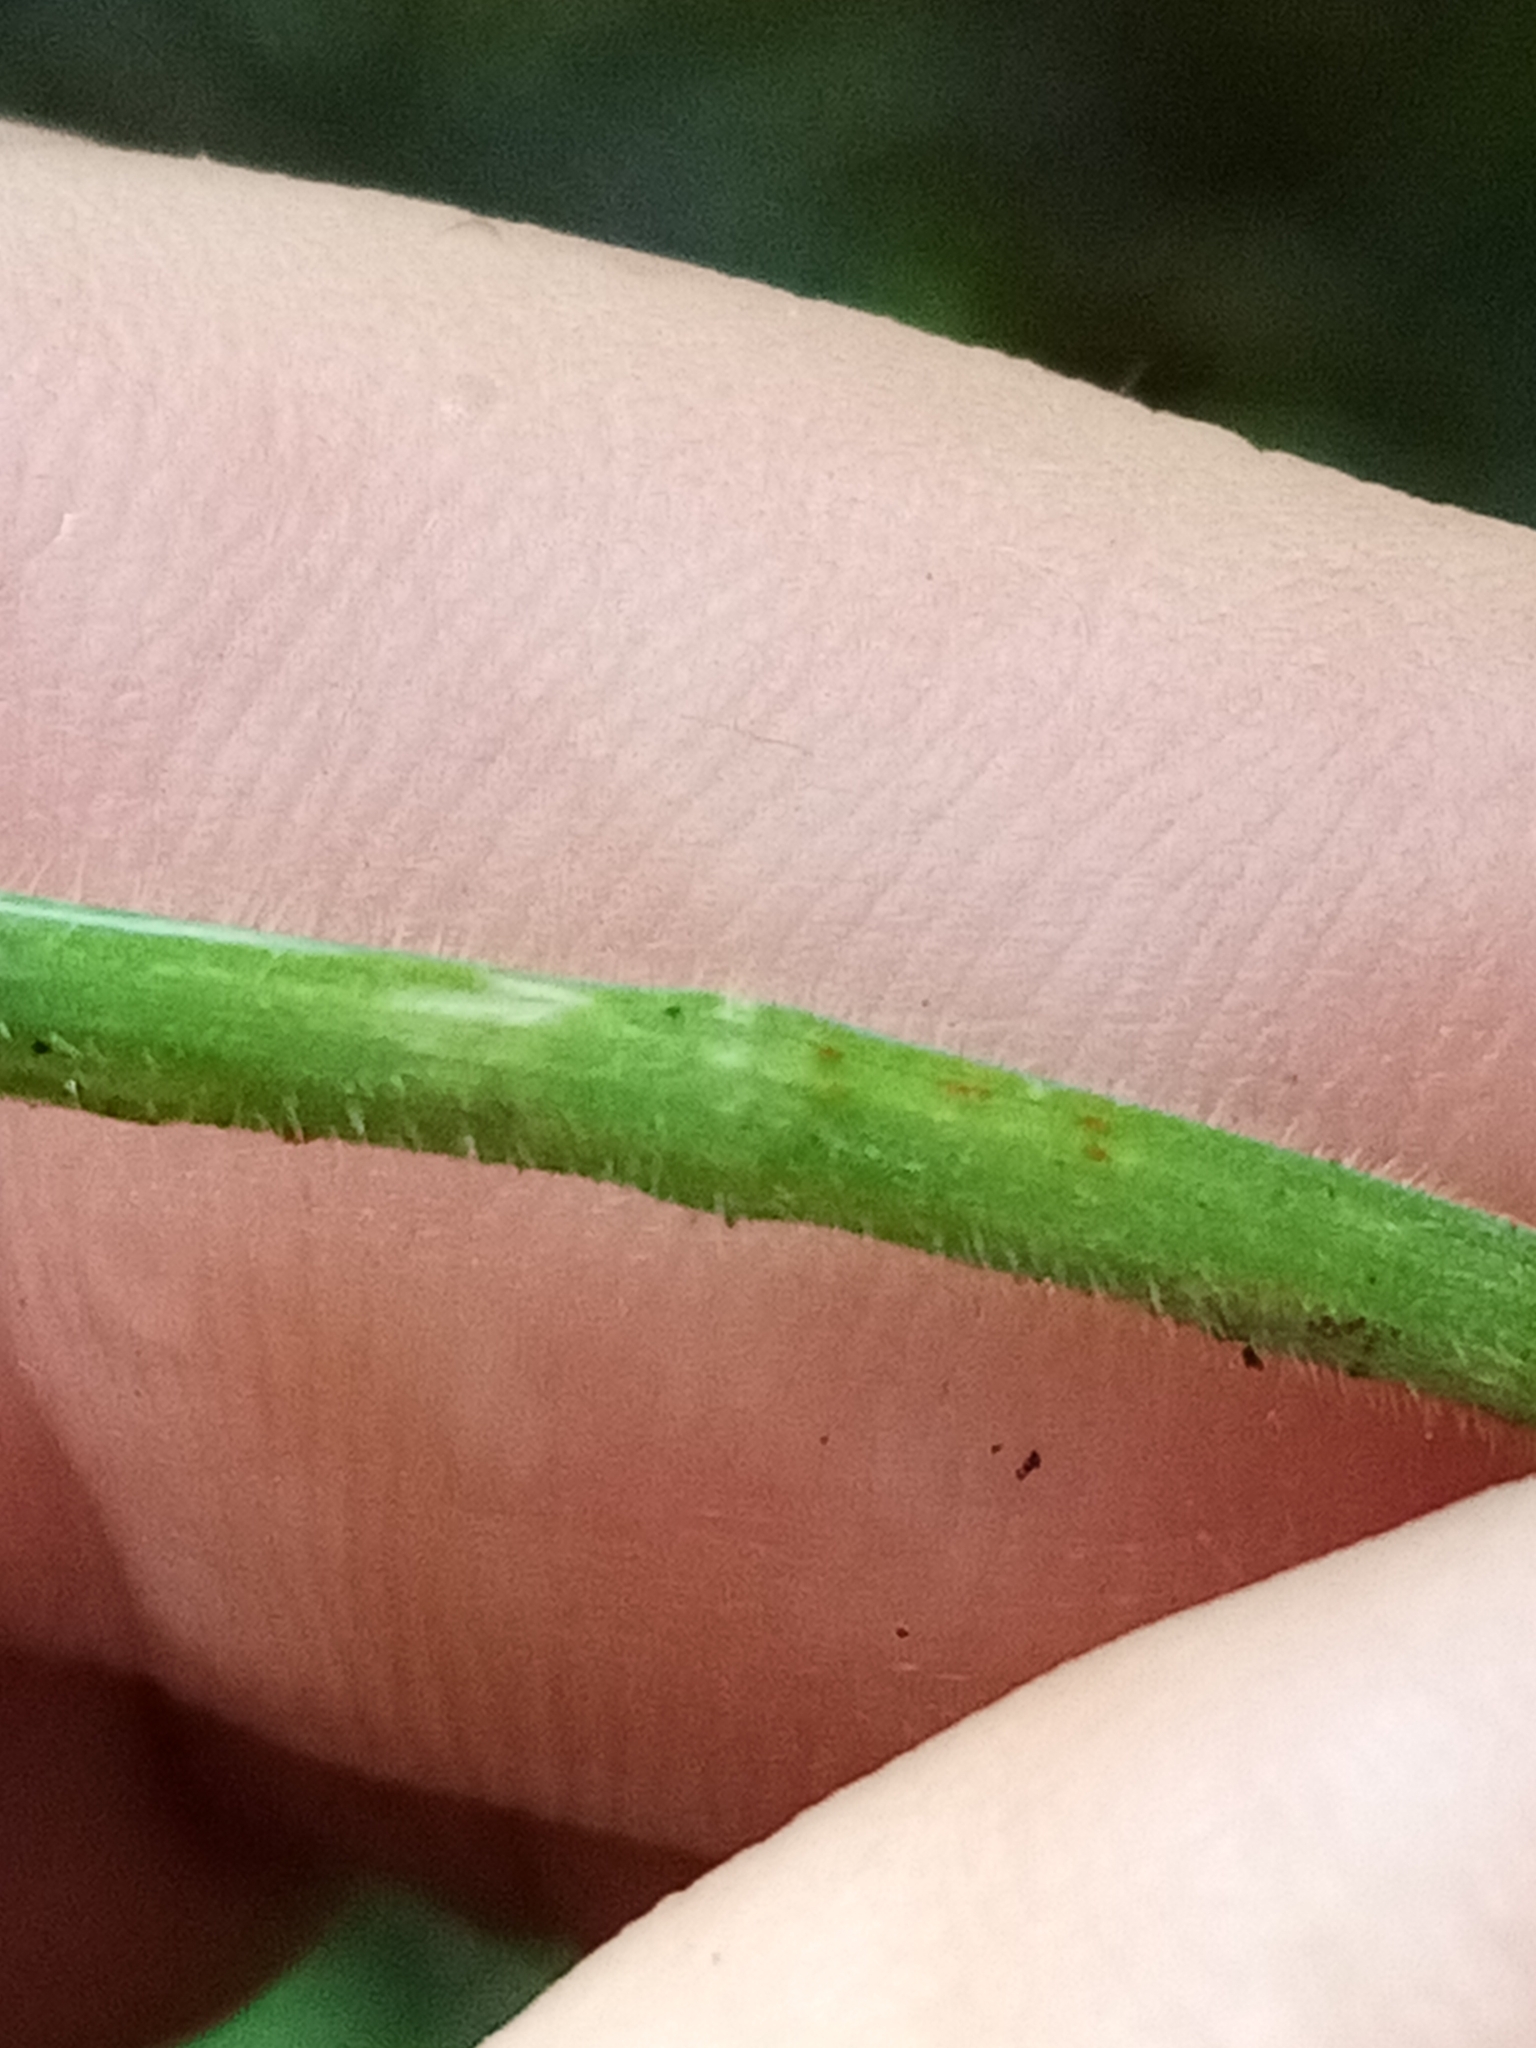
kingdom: Plantae
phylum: Tracheophyta
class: Liliopsida
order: Poales
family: Poaceae
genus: Bromus
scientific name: Bromus diandrus
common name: Ripgut brome
